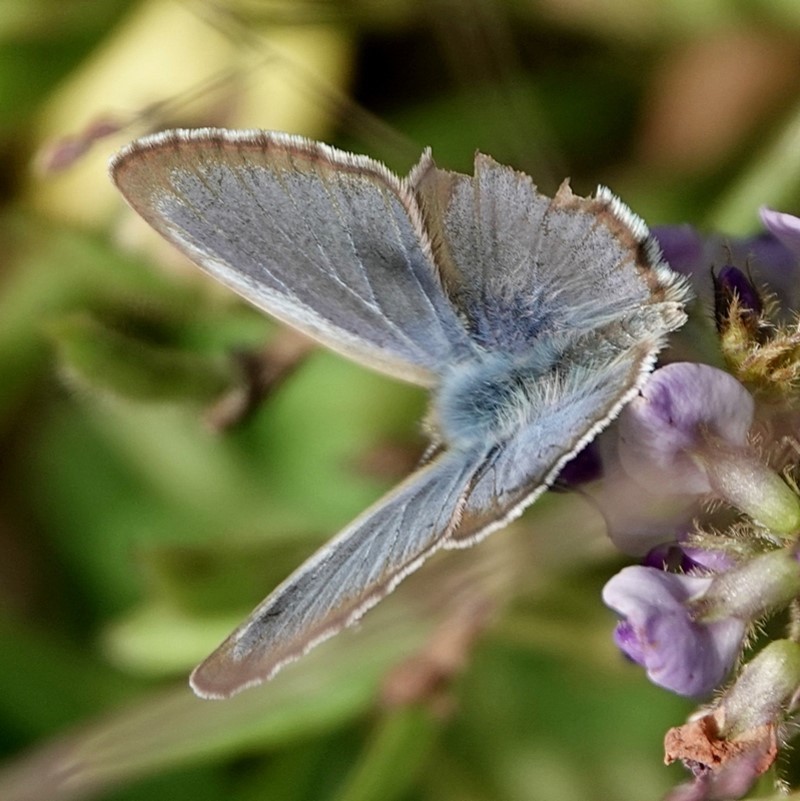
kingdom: Animalia
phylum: Arthropoda
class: Insecta
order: Lepidoptera
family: Lycaenidae
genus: Zizina
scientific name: Zizina labradus
